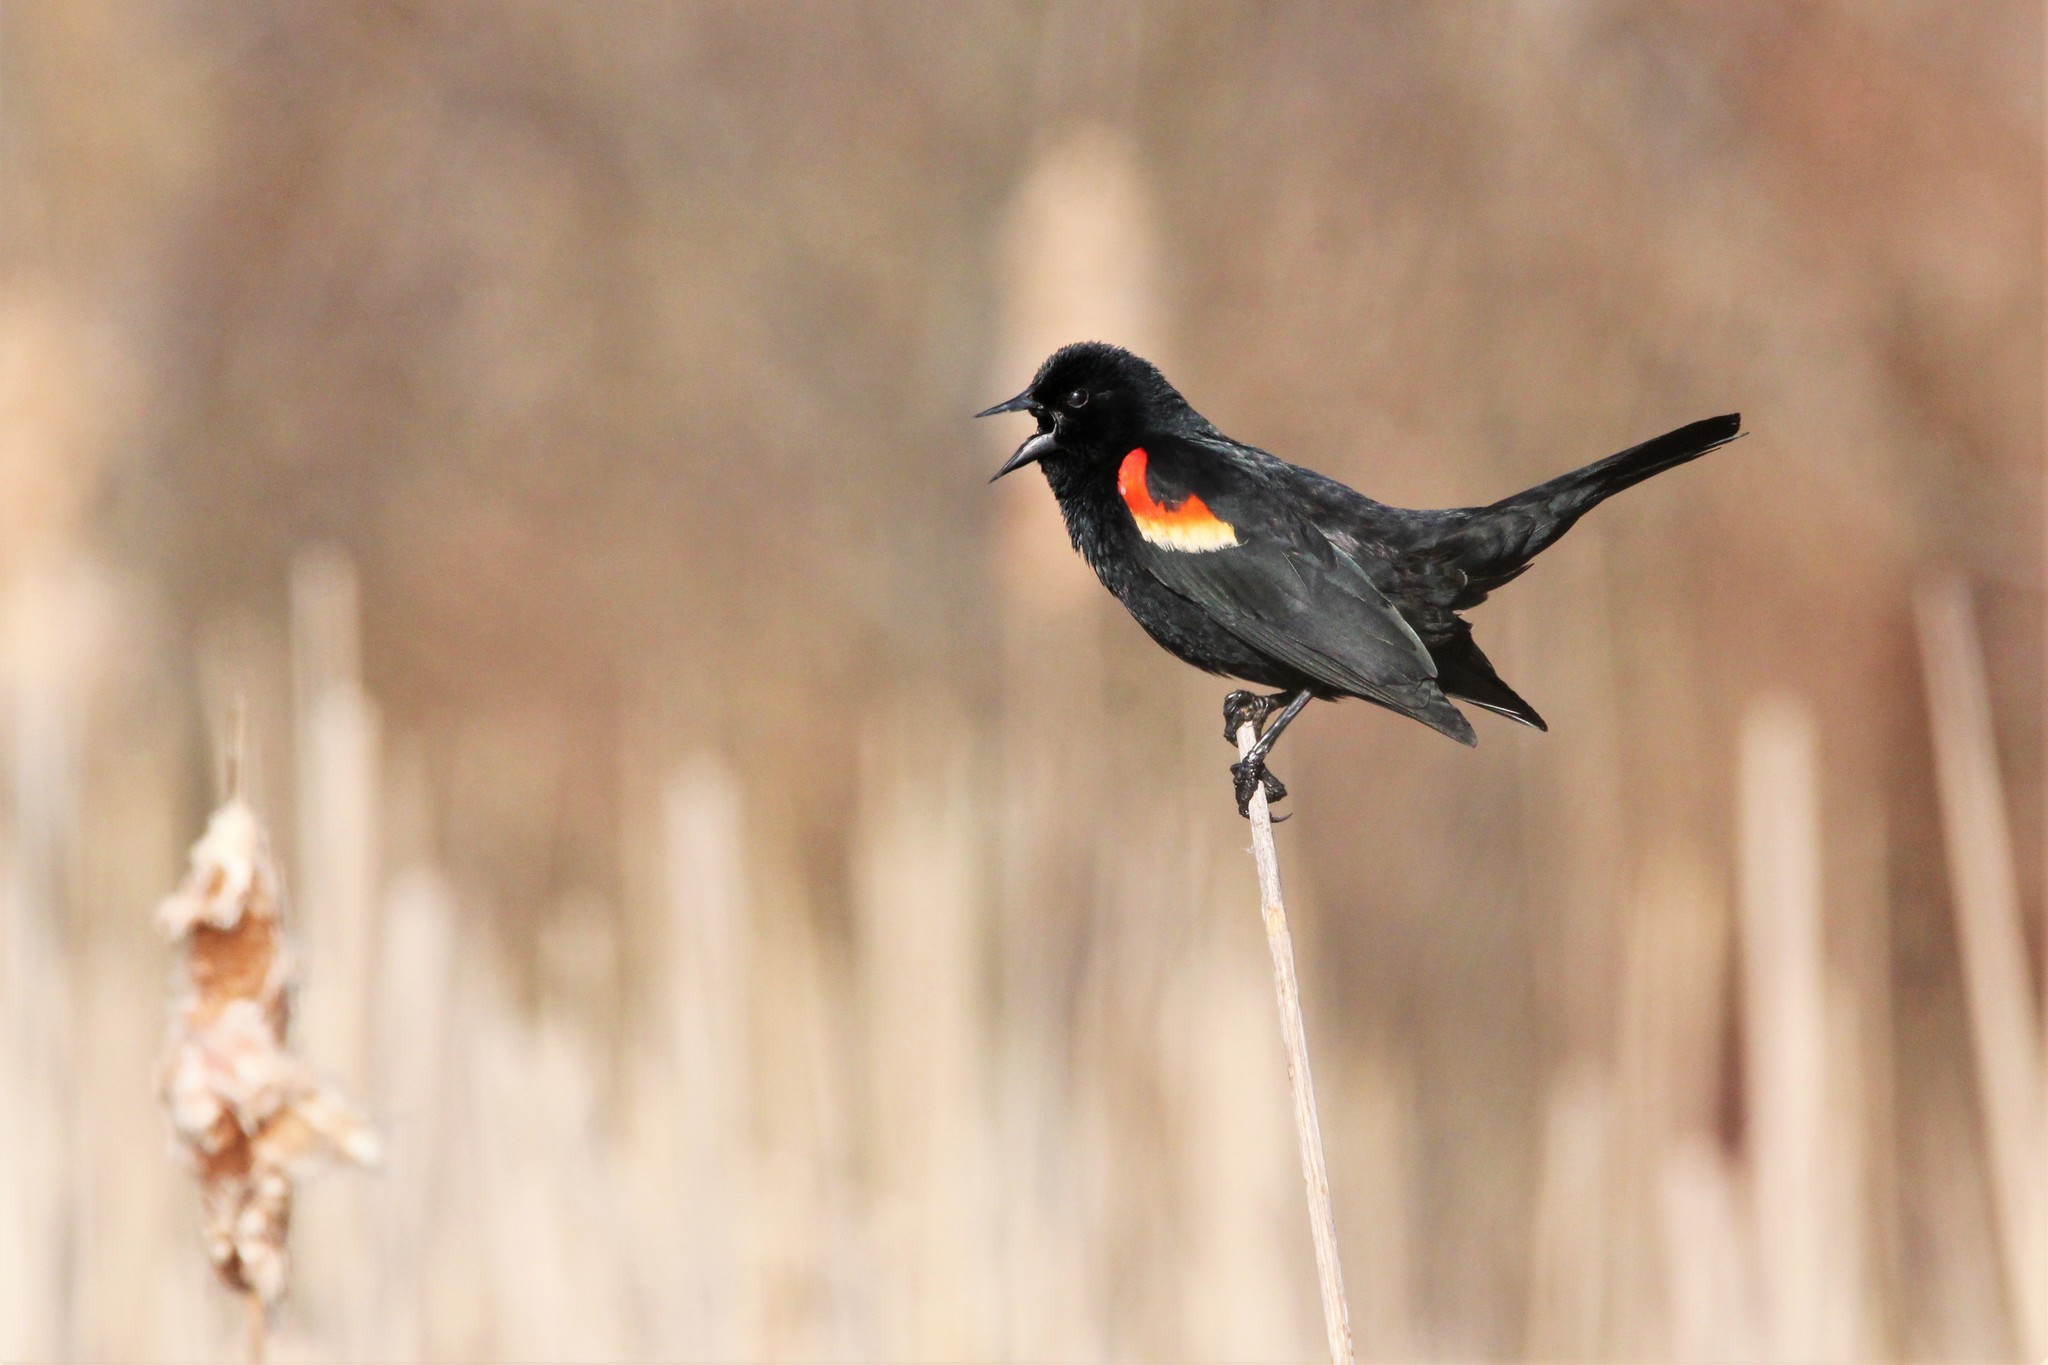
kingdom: Animalia
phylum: Chordata
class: Aves
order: Passeriformes
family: Icteridae
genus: Agelaius
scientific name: Agelaius phoeniceus
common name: Red-winged blackbird
